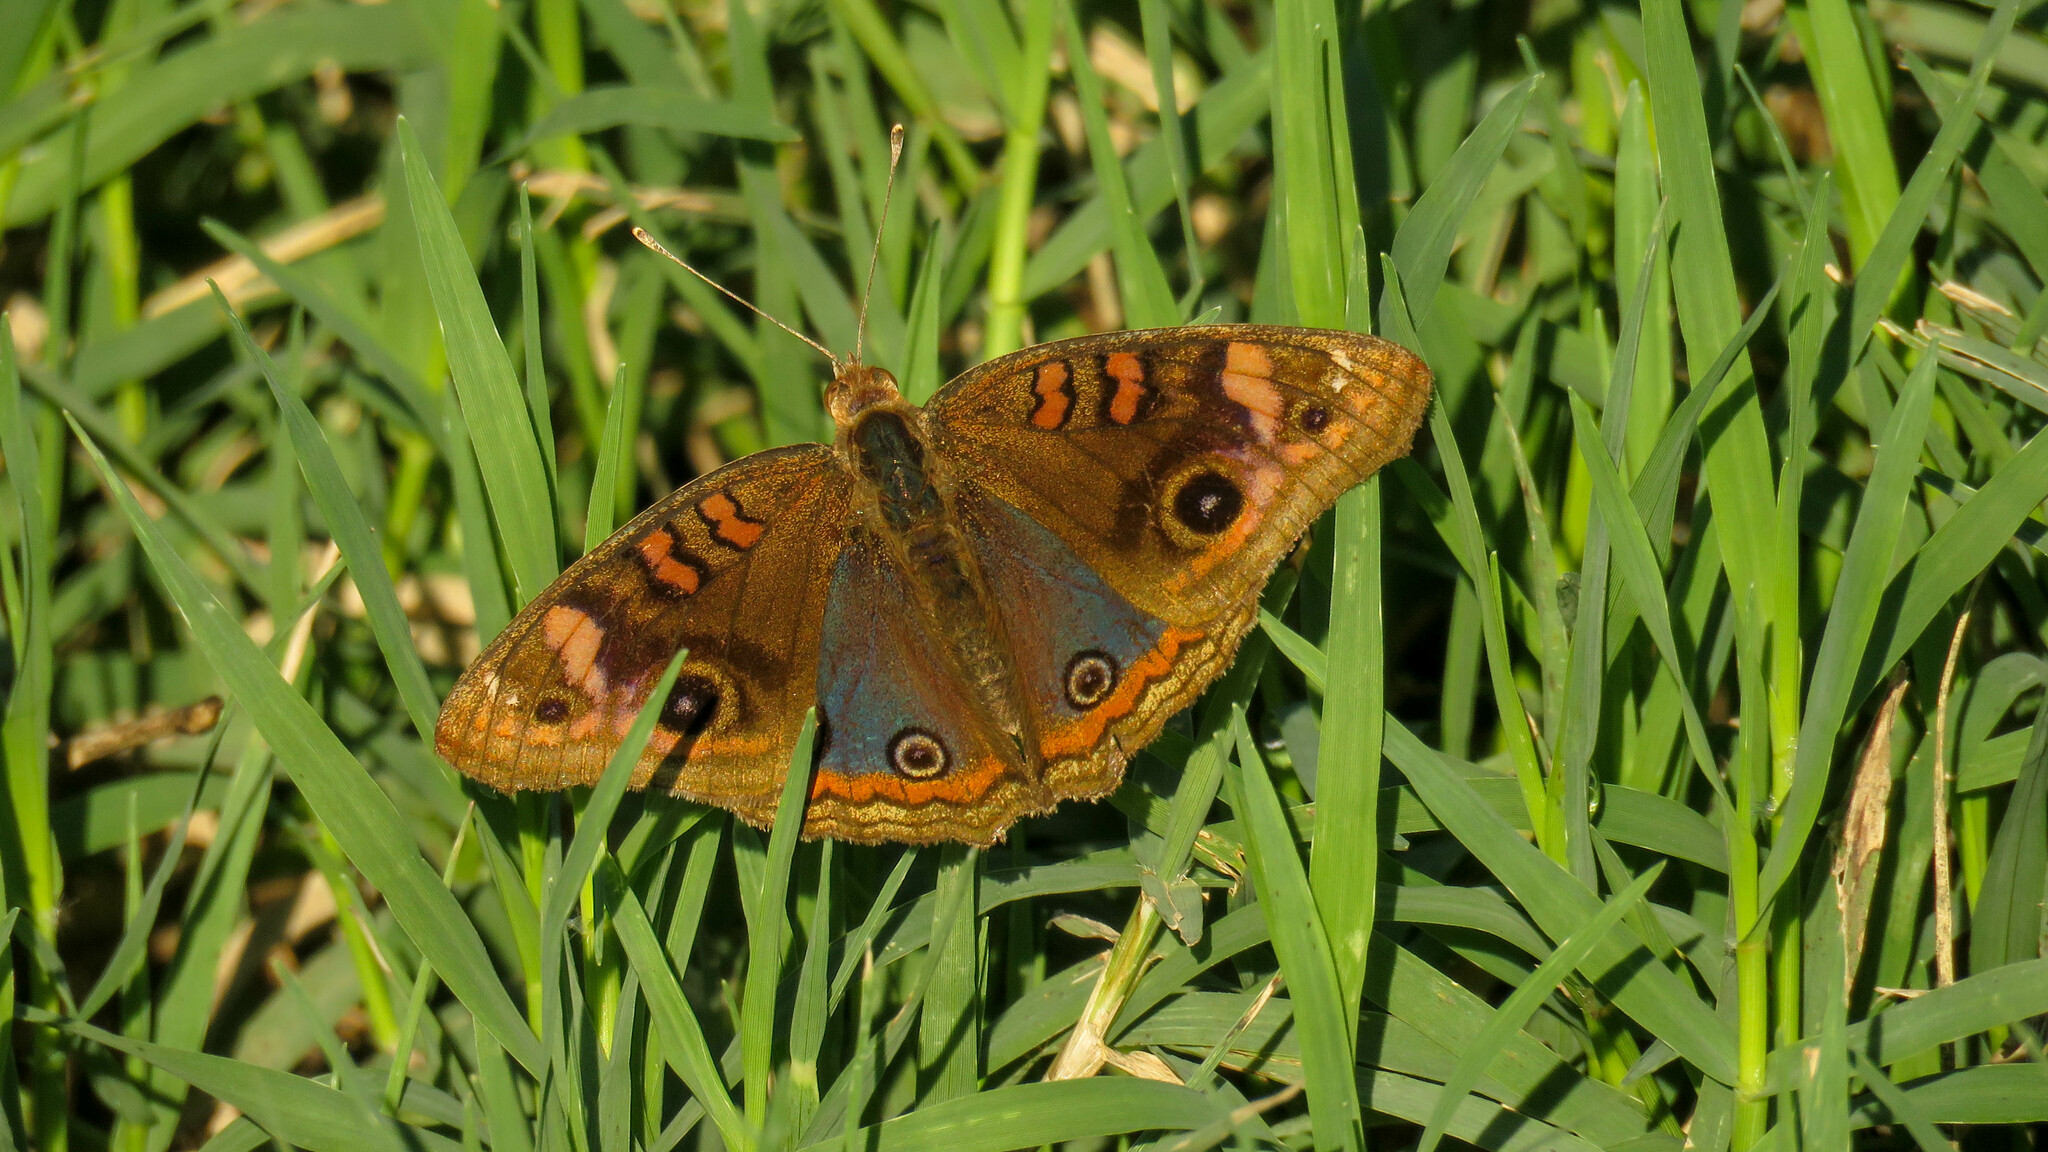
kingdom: Animalia
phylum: Arthropoda
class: Insecta
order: Lepidoptera
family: Nymphalidae
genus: Junonia
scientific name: Junonia lavinia
